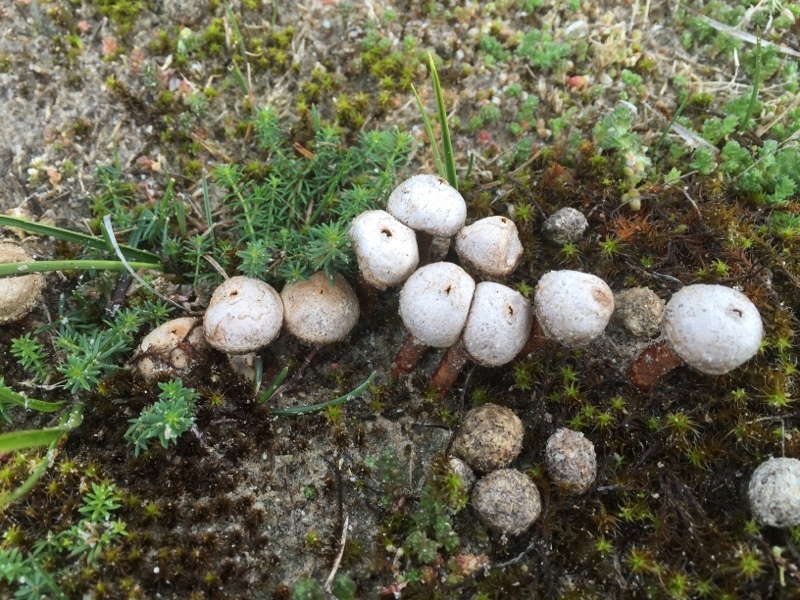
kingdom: Fungi
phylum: Basidiomycota
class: Agaricomycetes
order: Agaricales
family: Agaricaceae
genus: Tulostoma
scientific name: Tulostoma fimbriatum
